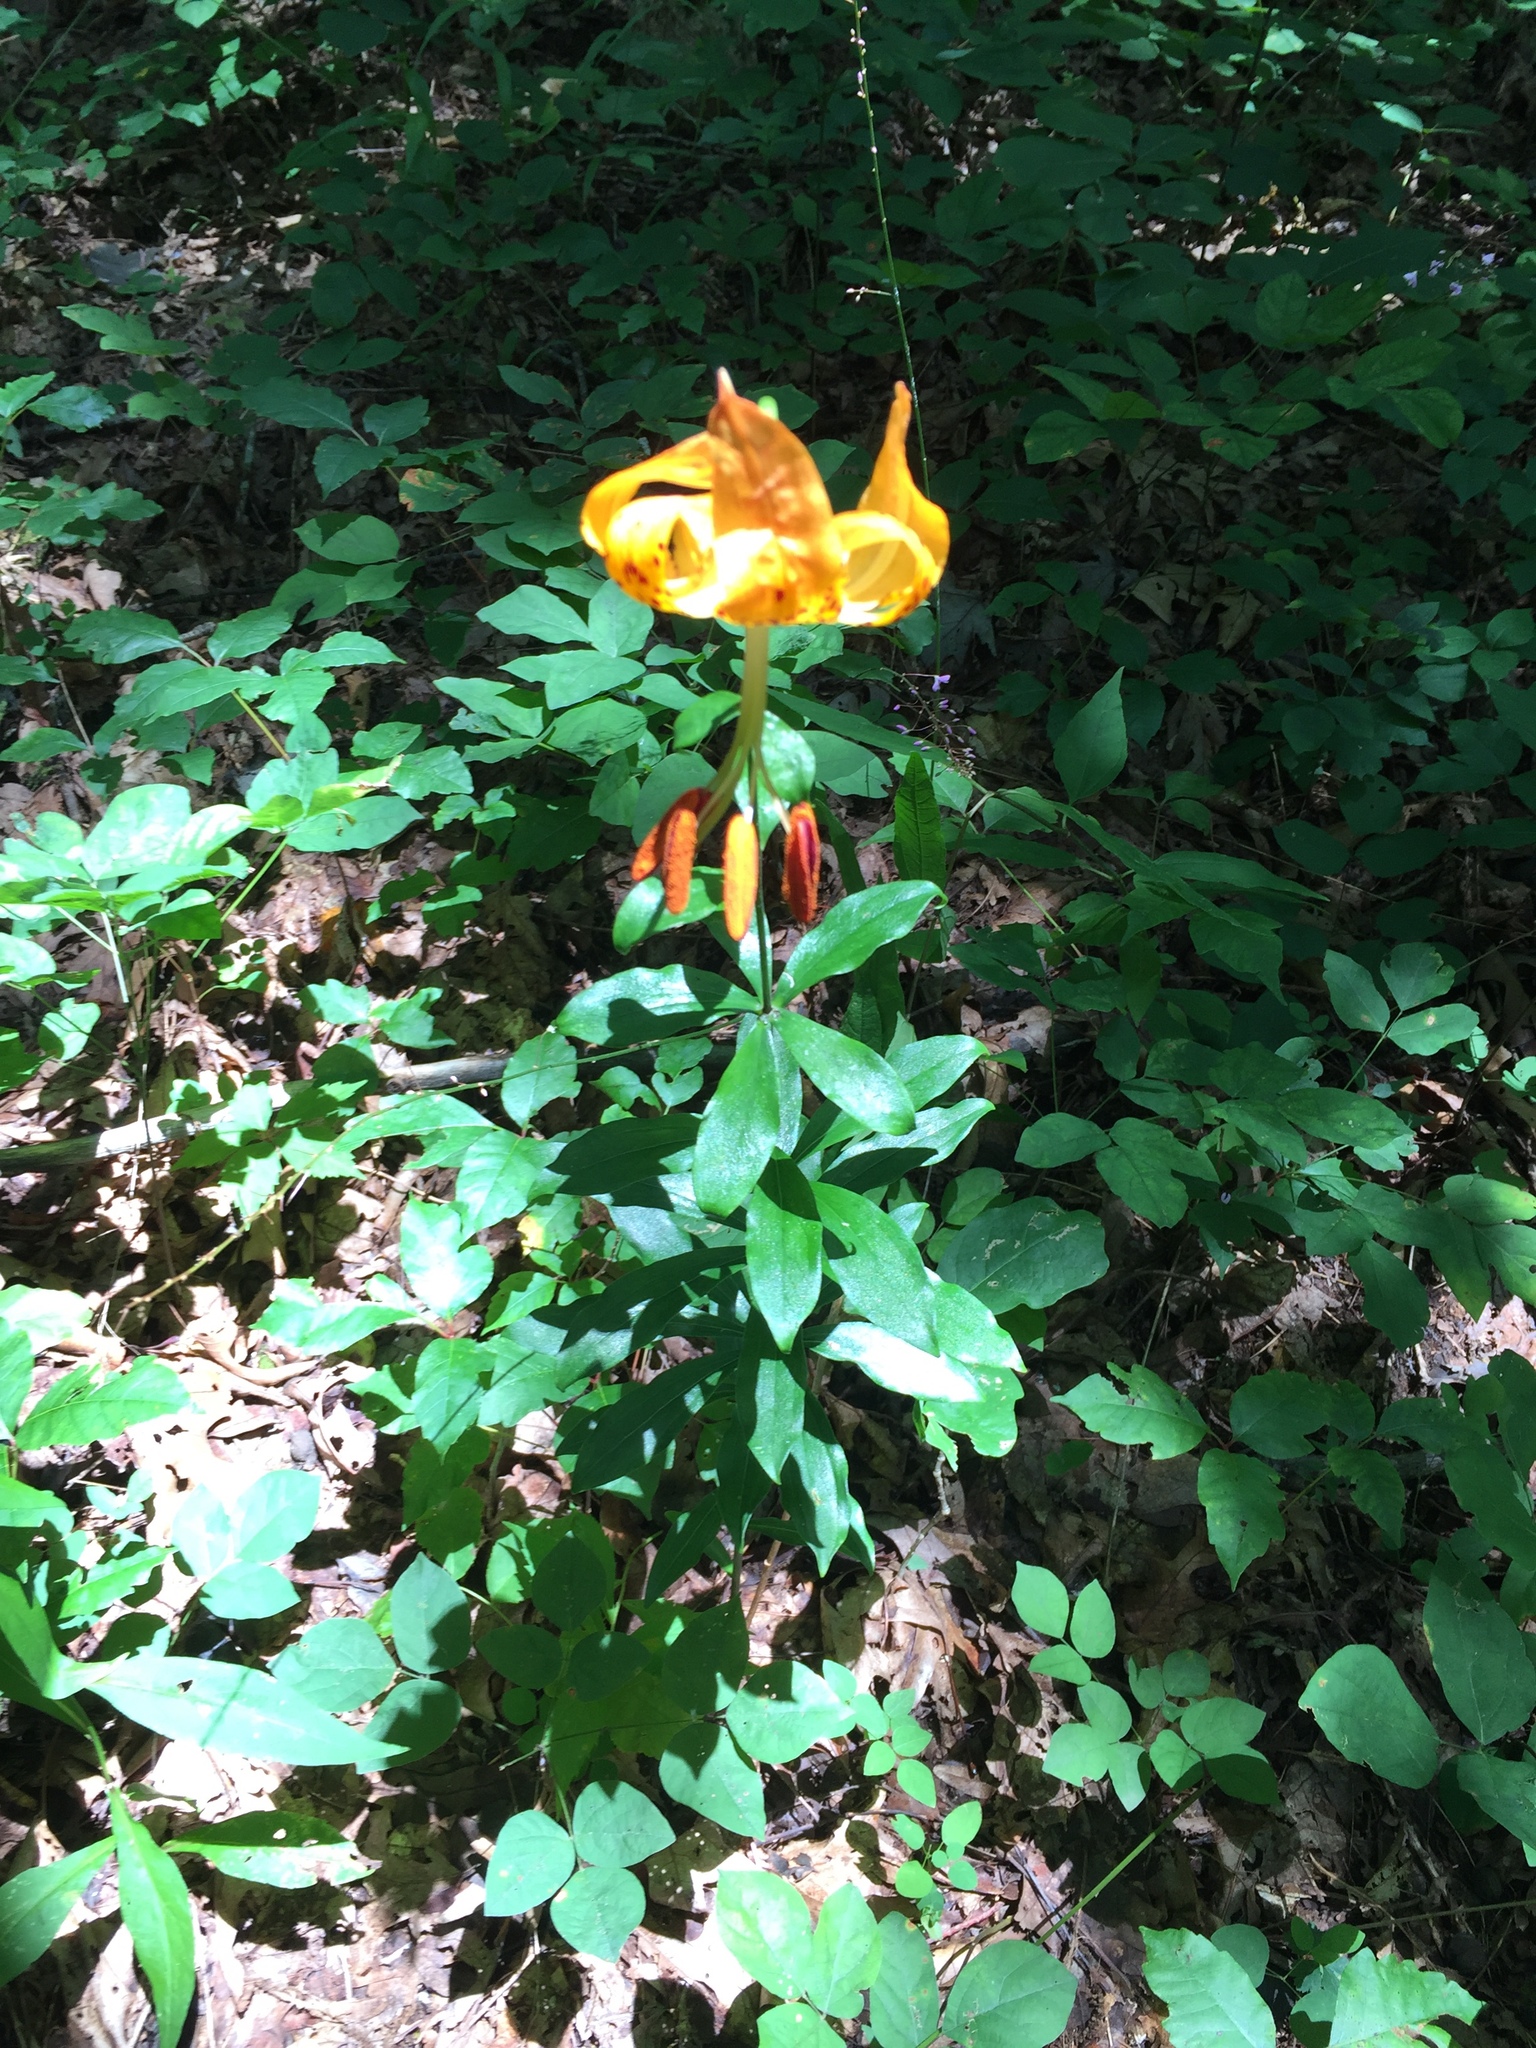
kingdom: Plantae
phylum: Tracheophyta
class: Liliopsida
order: Liliales
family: Liliaceae
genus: Lilium
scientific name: Lilium michauxii
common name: Carolina lily
